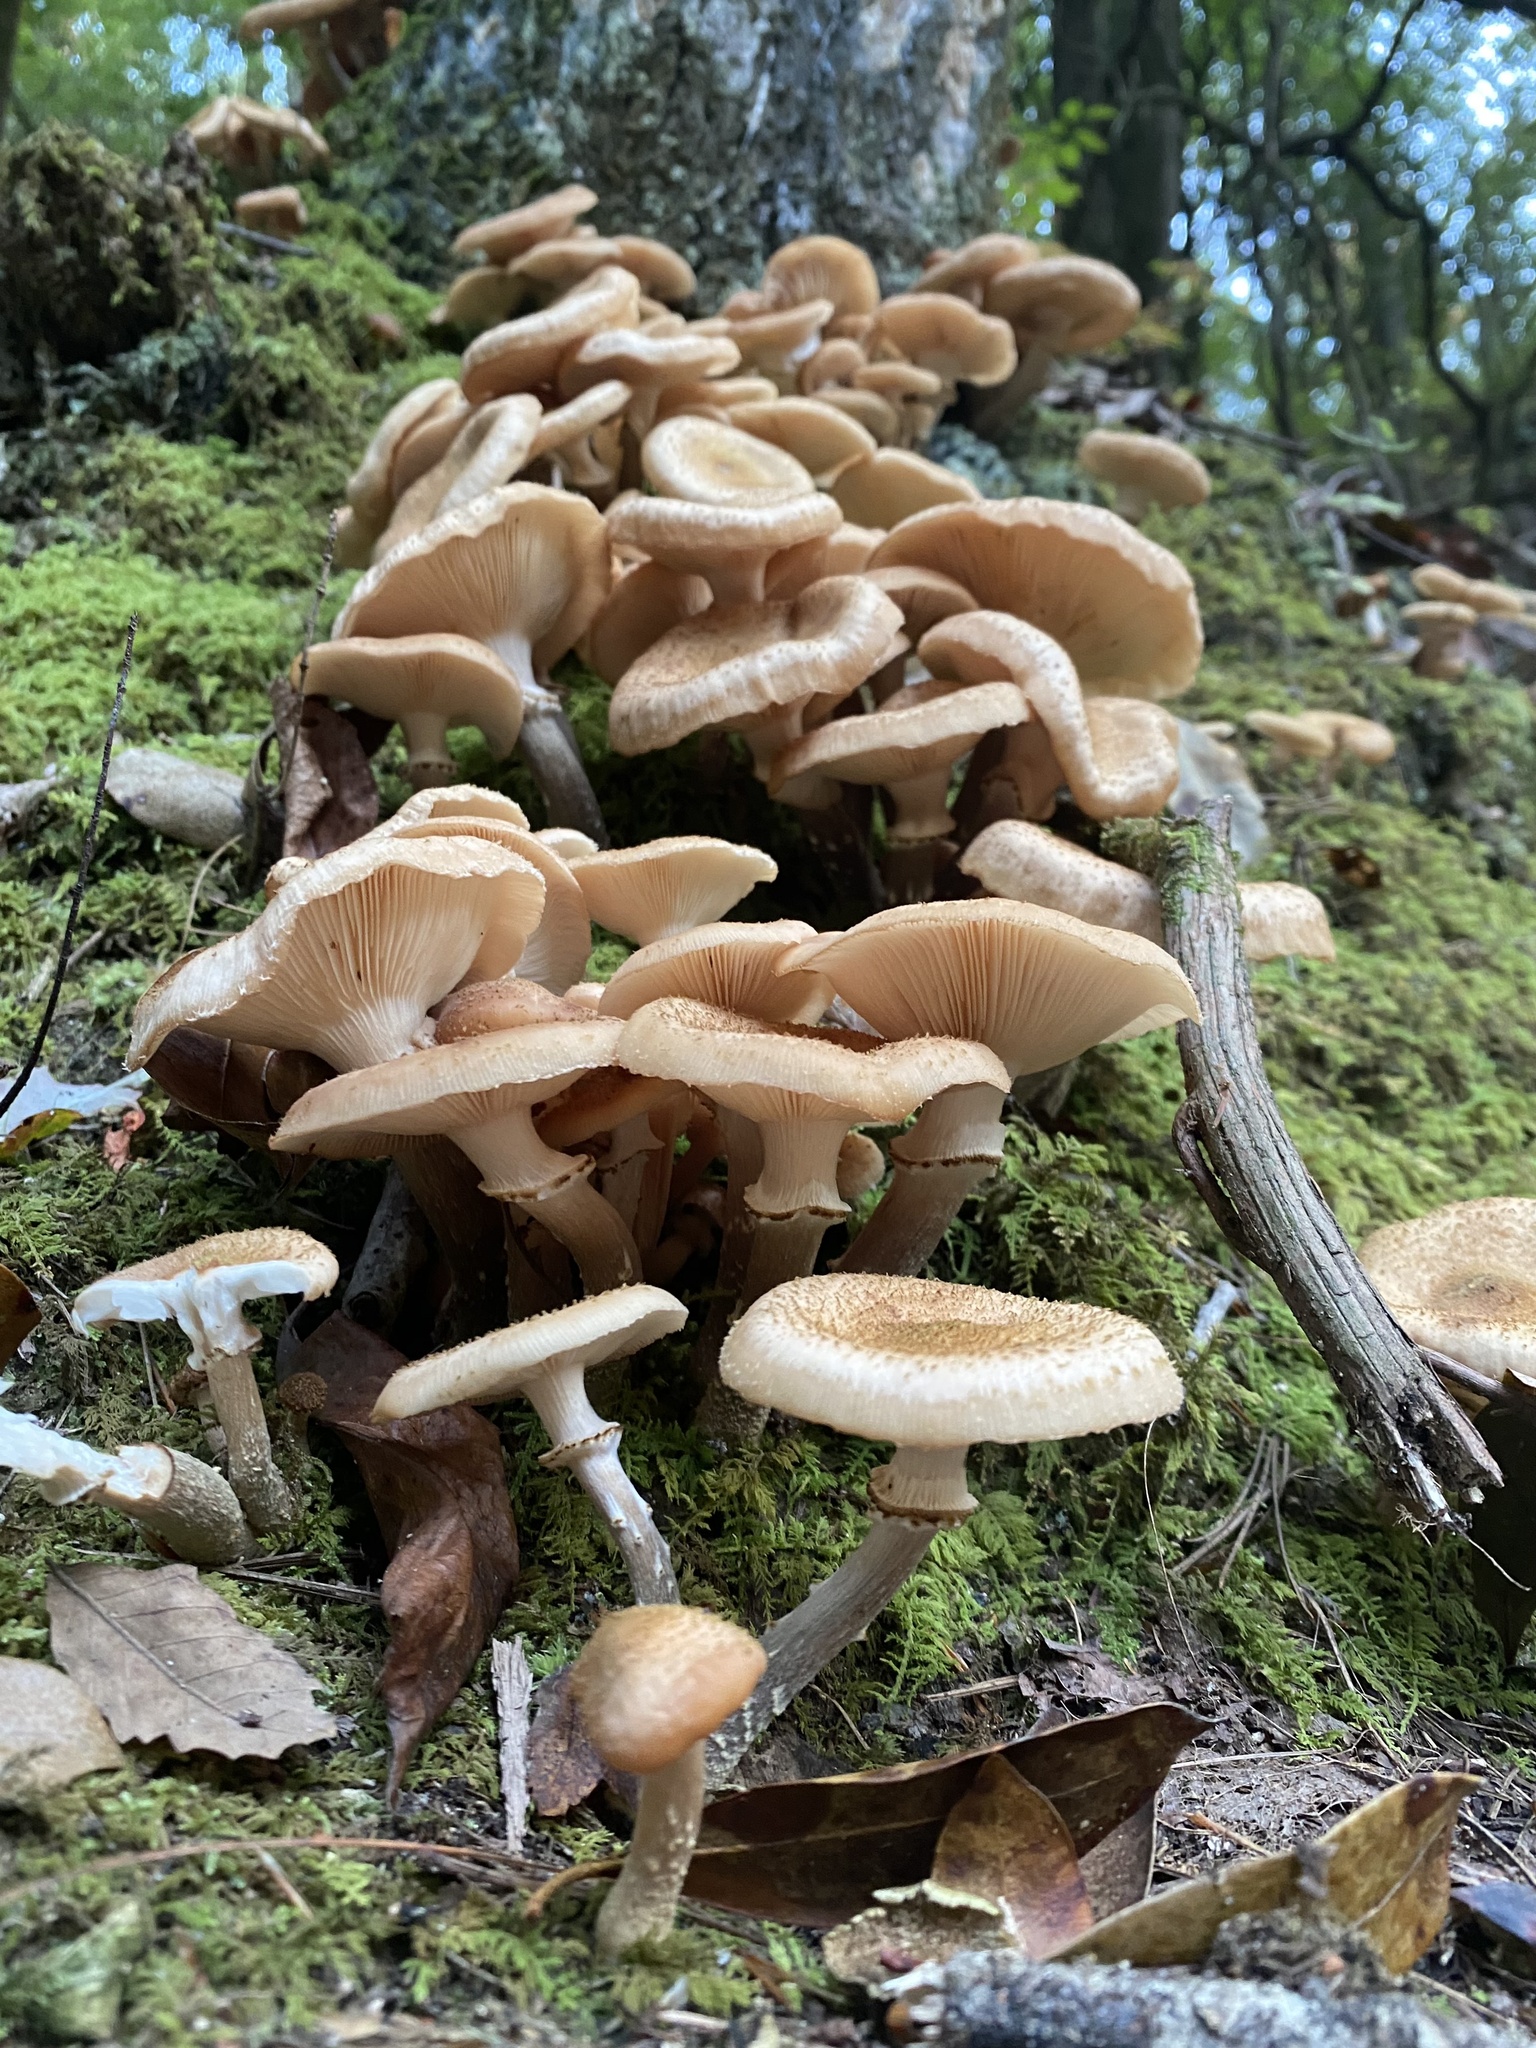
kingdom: Fungi
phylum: Basidiomycota
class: Agaricomycetes
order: Agaricales
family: Physalacriaceae
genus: Armillaria
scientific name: Armillaria mellea
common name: Honey fungus
